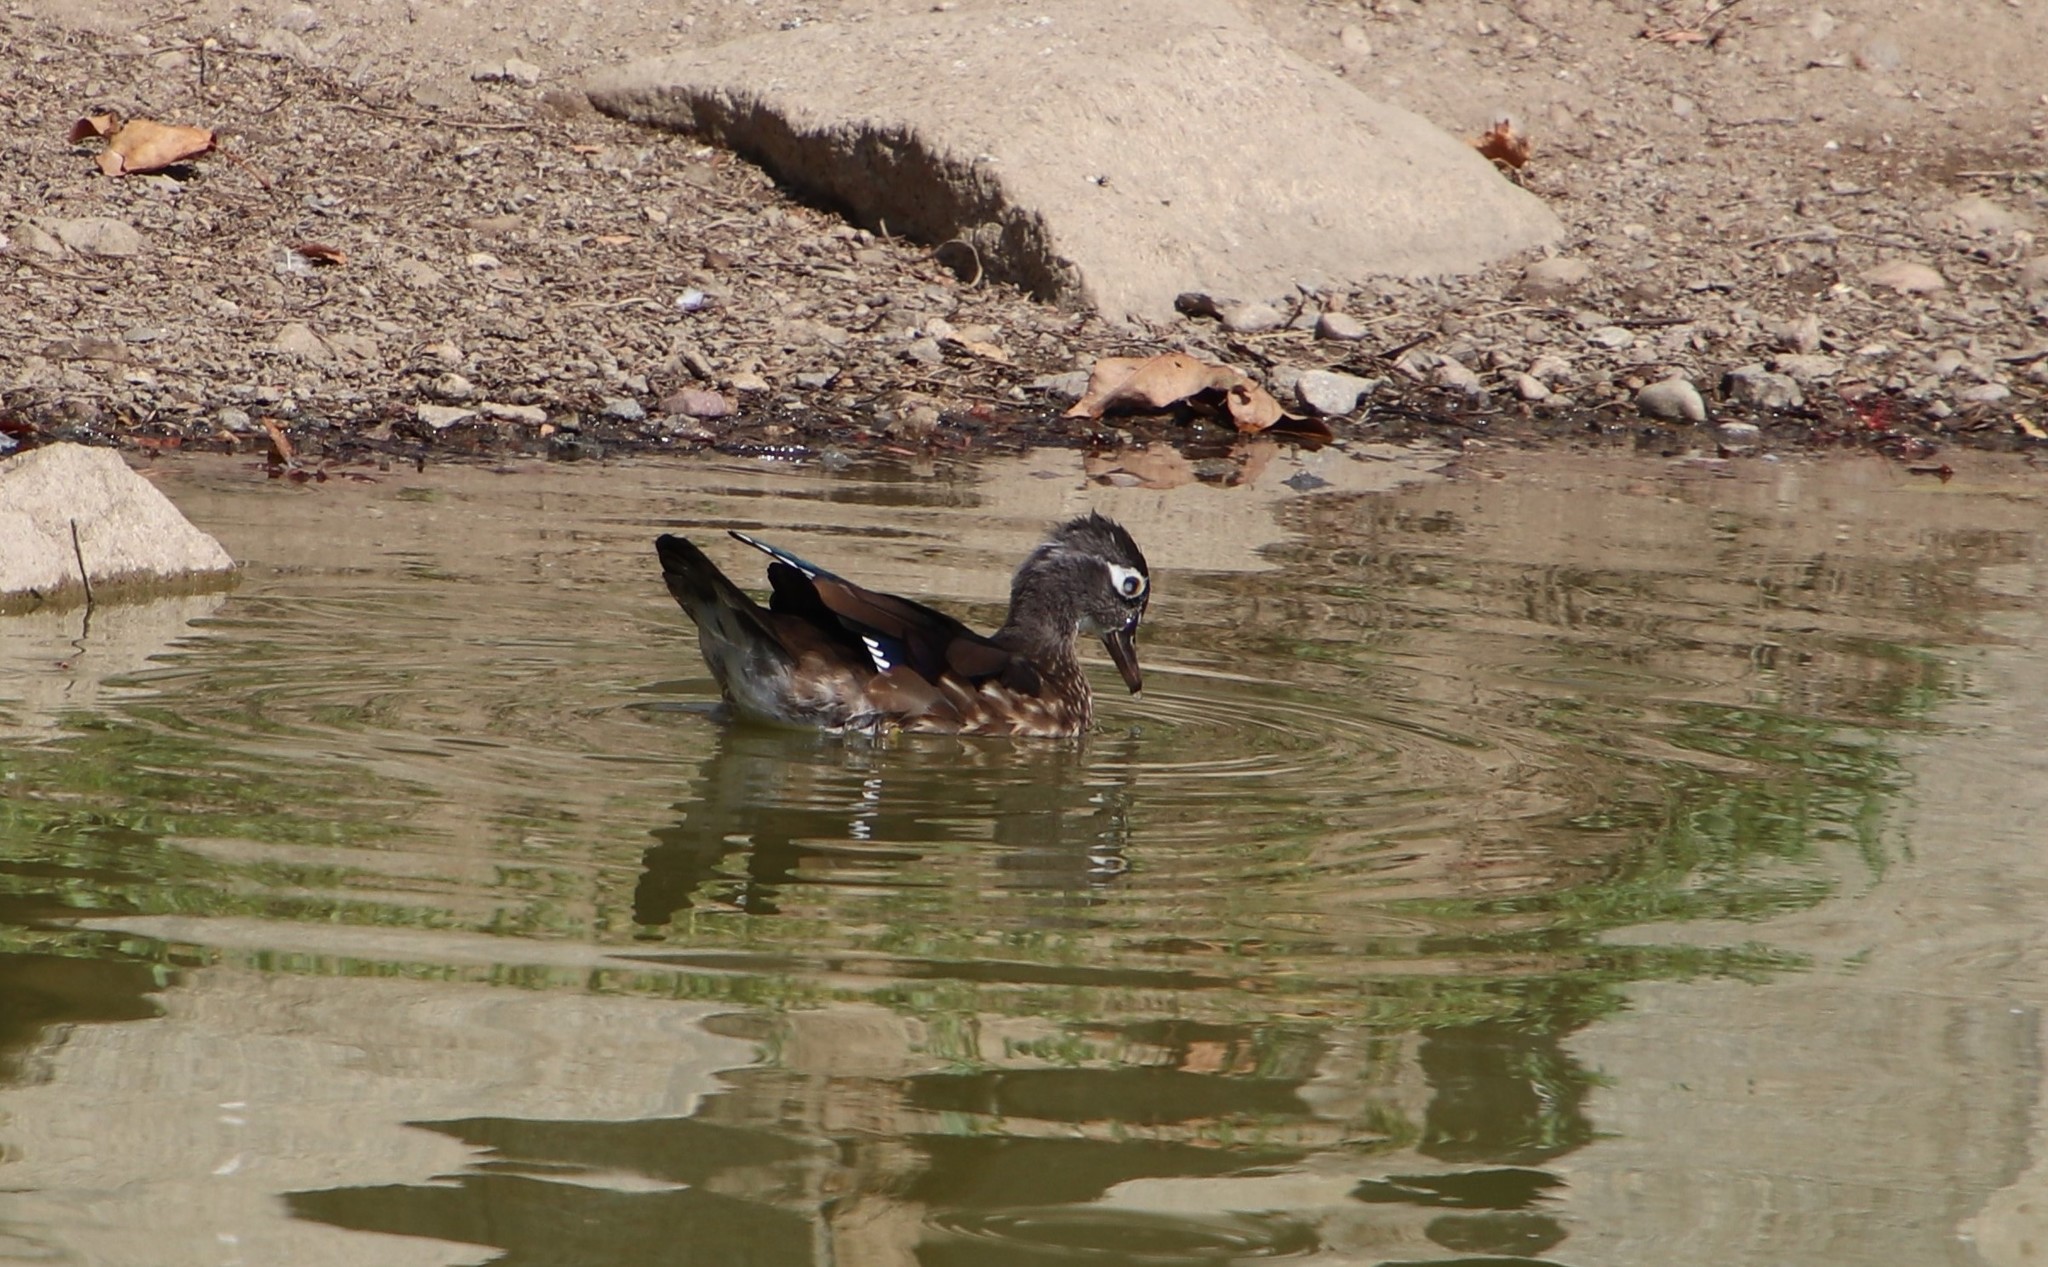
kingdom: Animalia
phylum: Chordata
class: Aves
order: Anseriformes
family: Anatidae
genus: Aix
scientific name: Aix sponsa
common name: Wood duck
